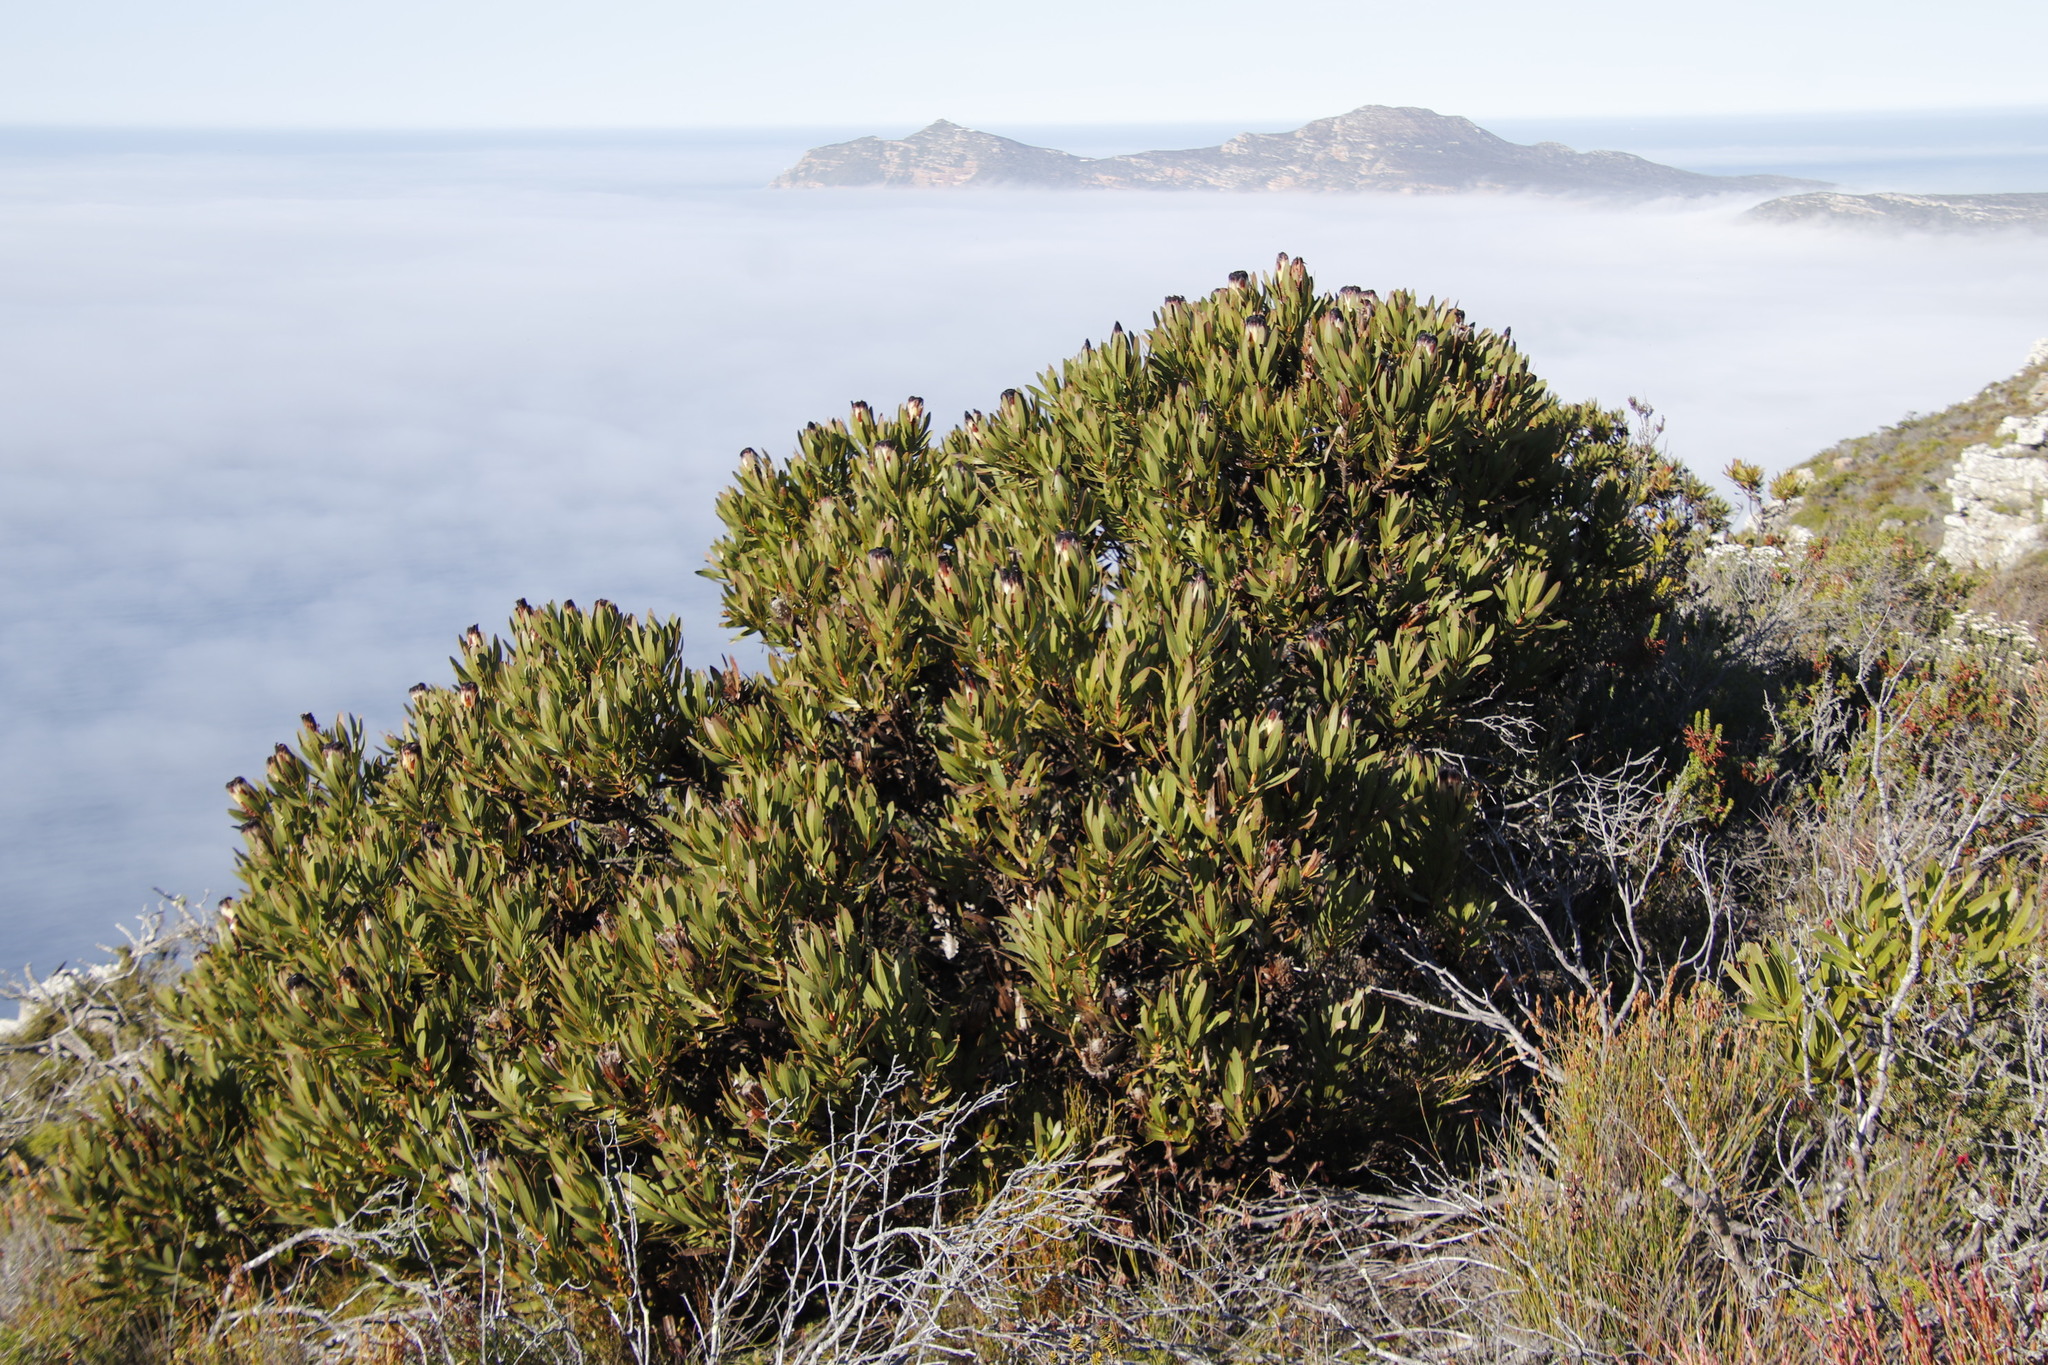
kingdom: Plantae
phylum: Tracheophyta
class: Magnoliopsida
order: Proteales
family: Proteaceae
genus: Protea
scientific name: Protea lepidocarpodendron
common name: Black-bearded protea
